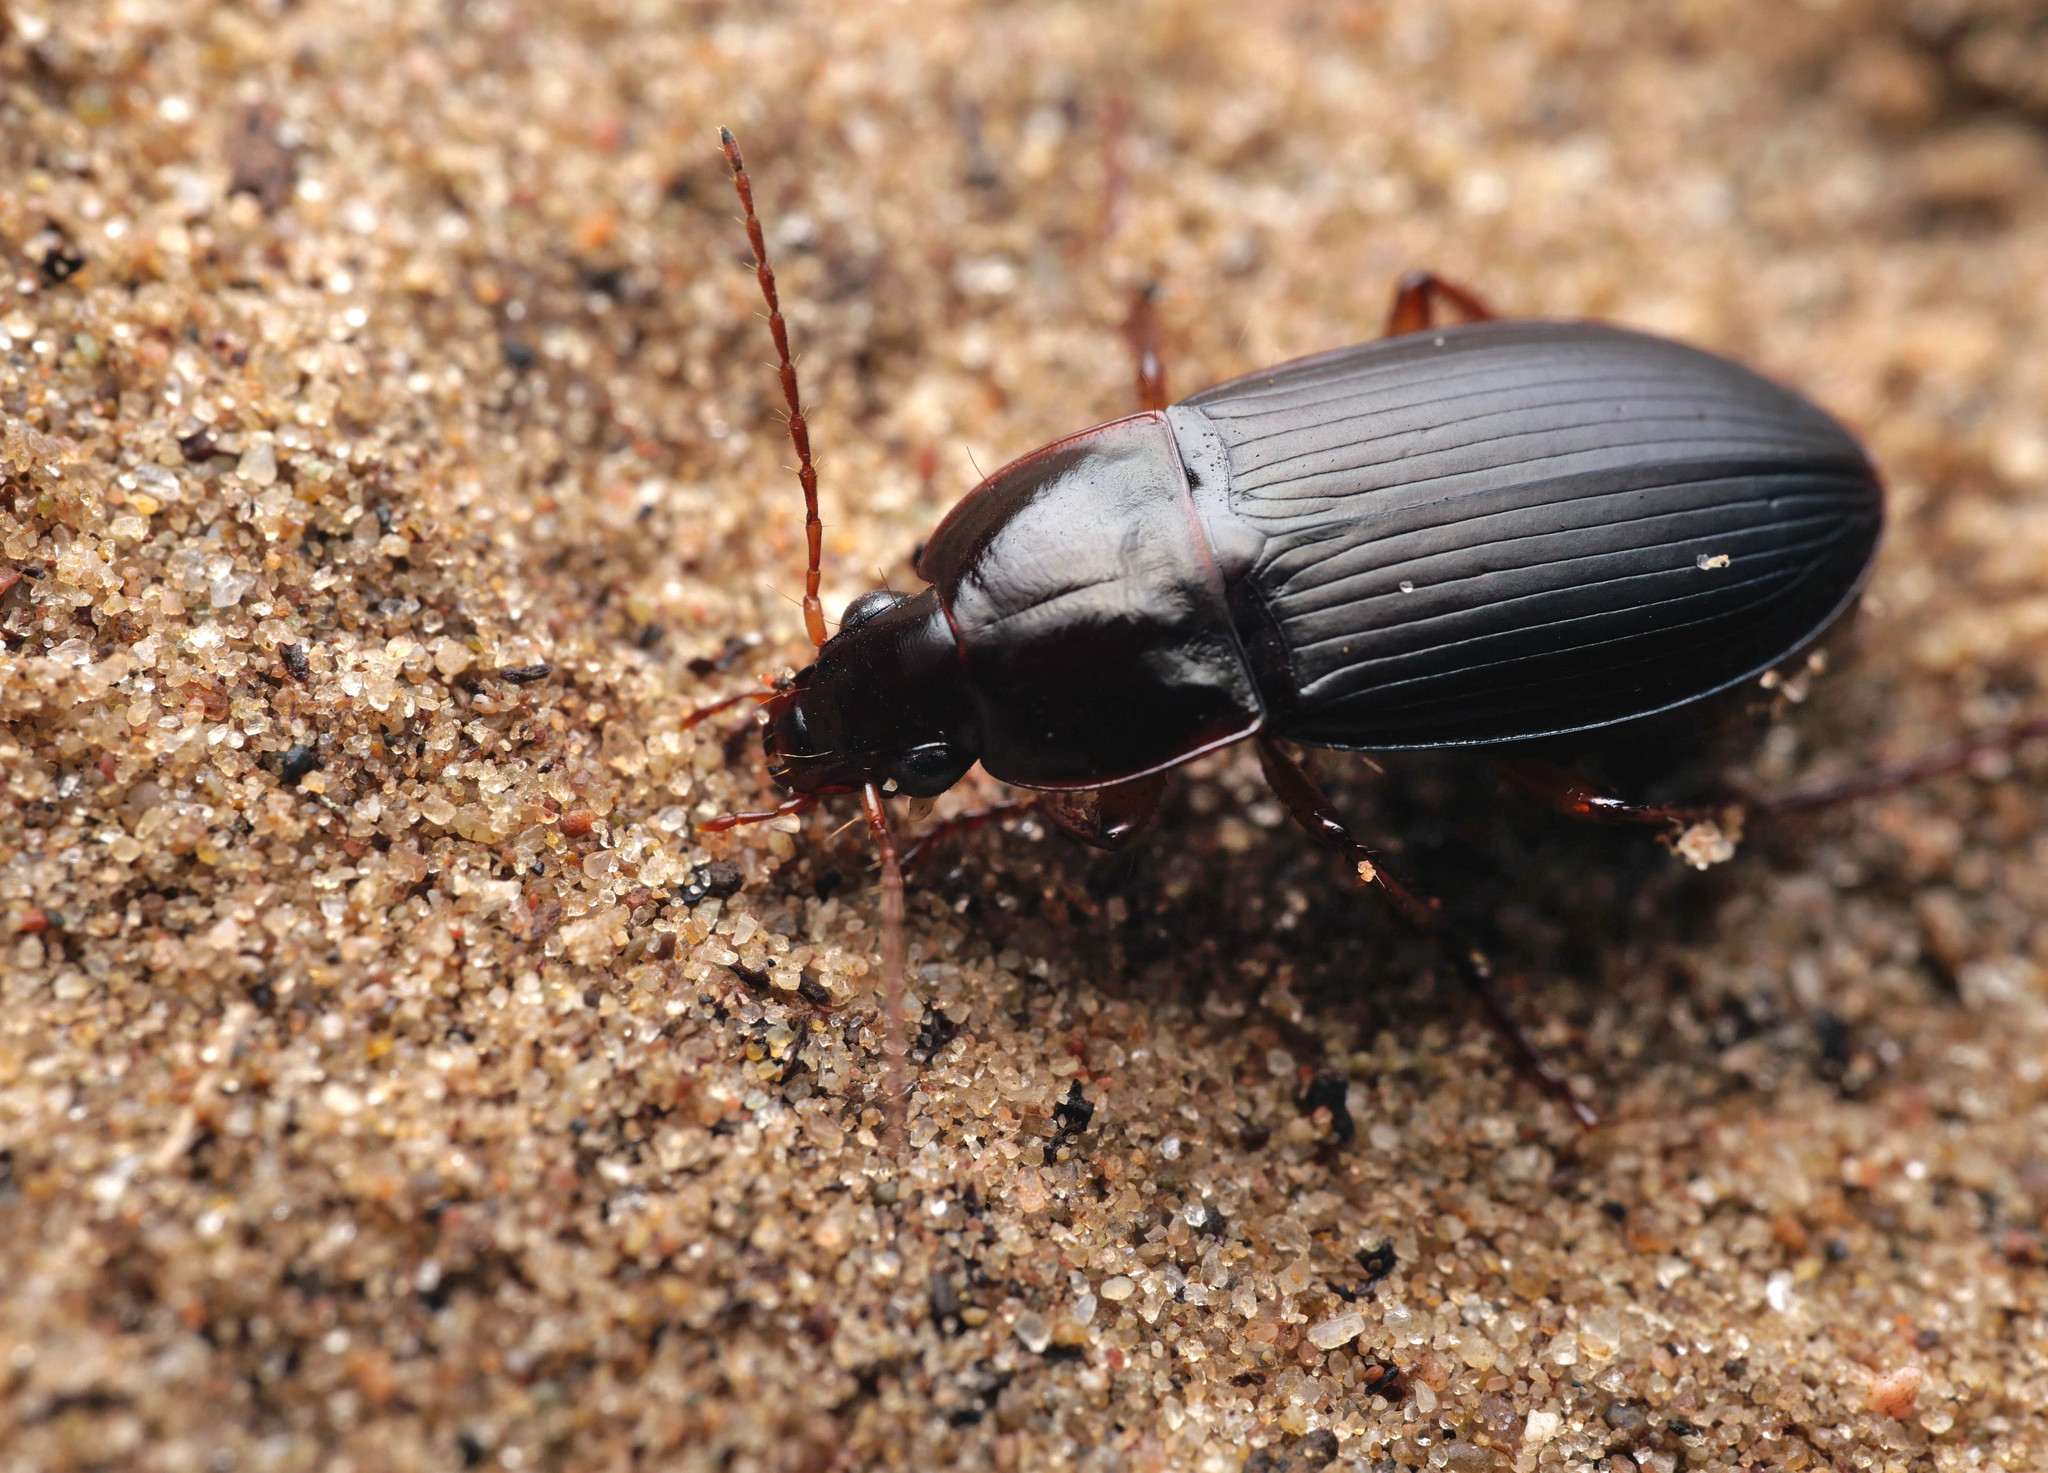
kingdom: Animalia
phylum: Arthropoda
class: Insecta
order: Coleoptera
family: Carabidae
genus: Calathus
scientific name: Calathus ambiguus
